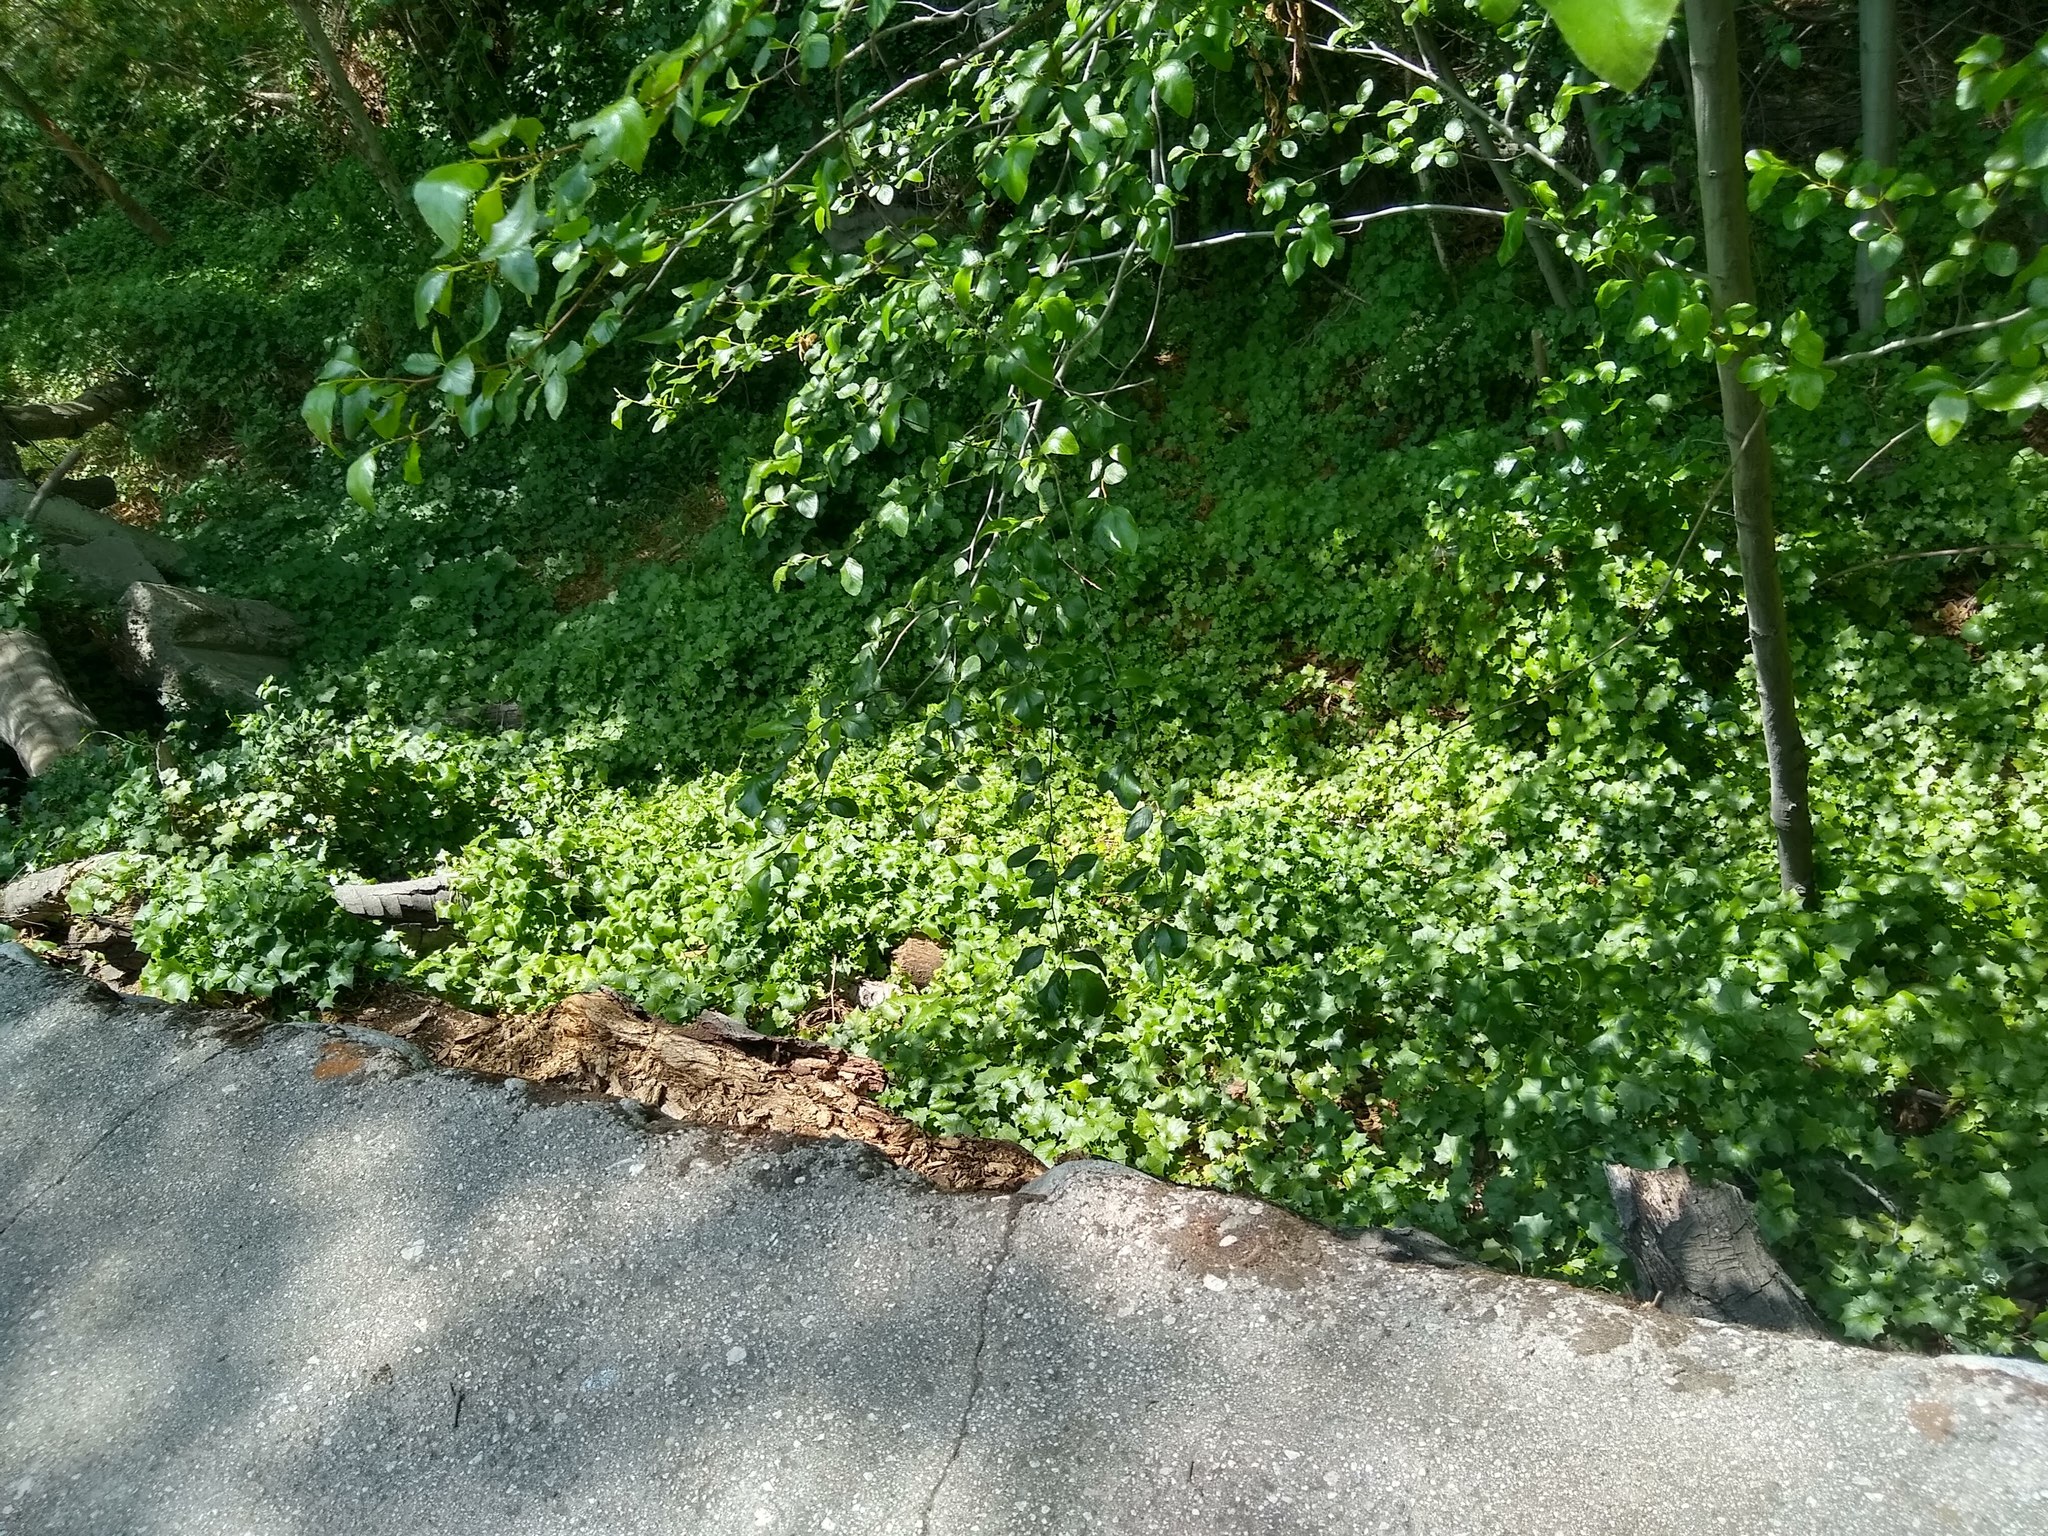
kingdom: Plantae
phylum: Tracheophyta
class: Magnoliopsida
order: Asterales
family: Asteraceae
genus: Delairea
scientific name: Delairea odorata
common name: Cape-ivy
